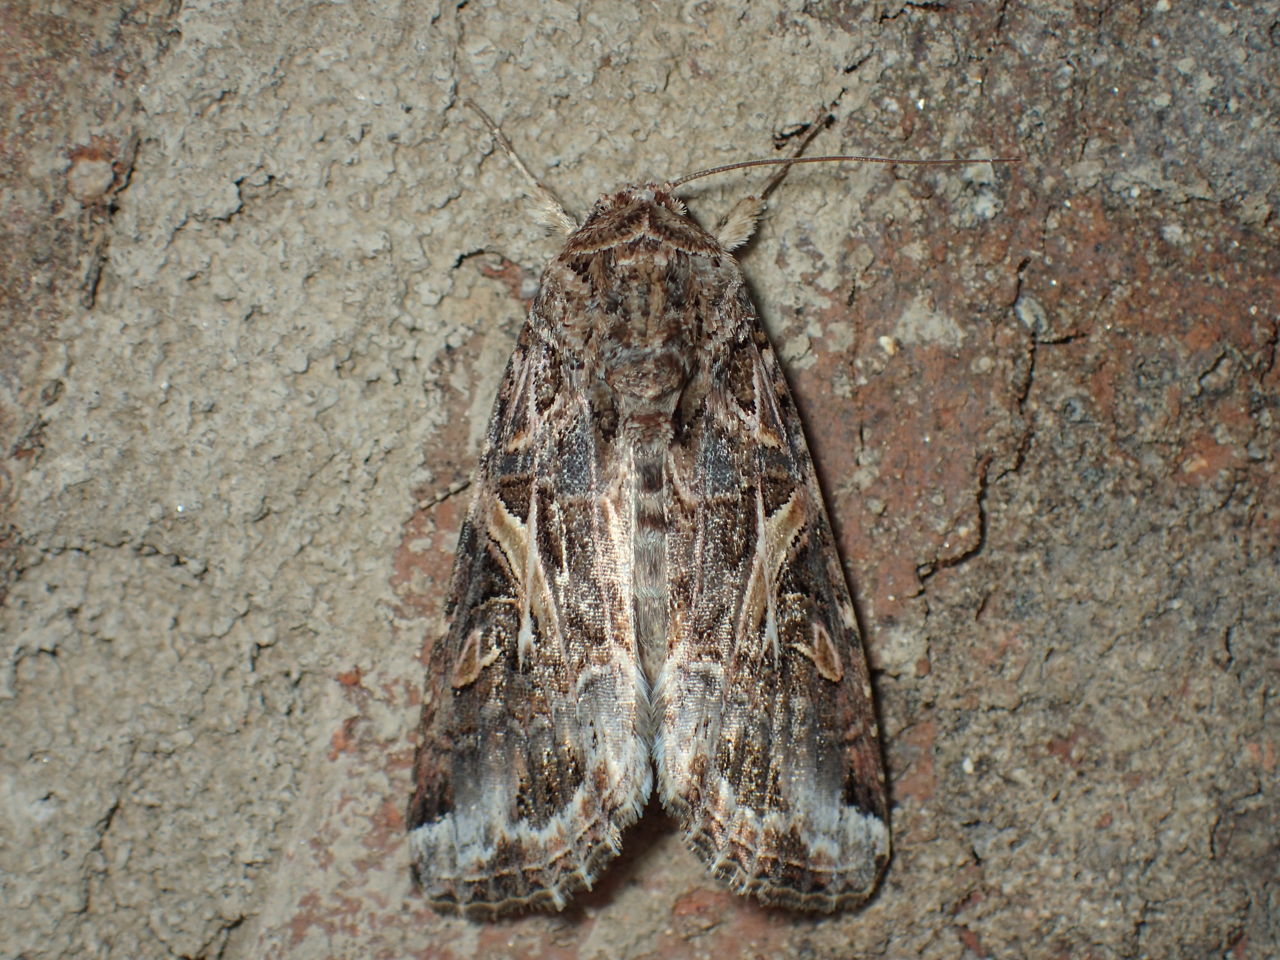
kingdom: Animalia
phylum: Arthropoda
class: Insecta
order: Lepidoptera
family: Noctuidae
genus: Spodoptera
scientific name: Spodoptera ornithogalli
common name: Yellow-striped armyworm
